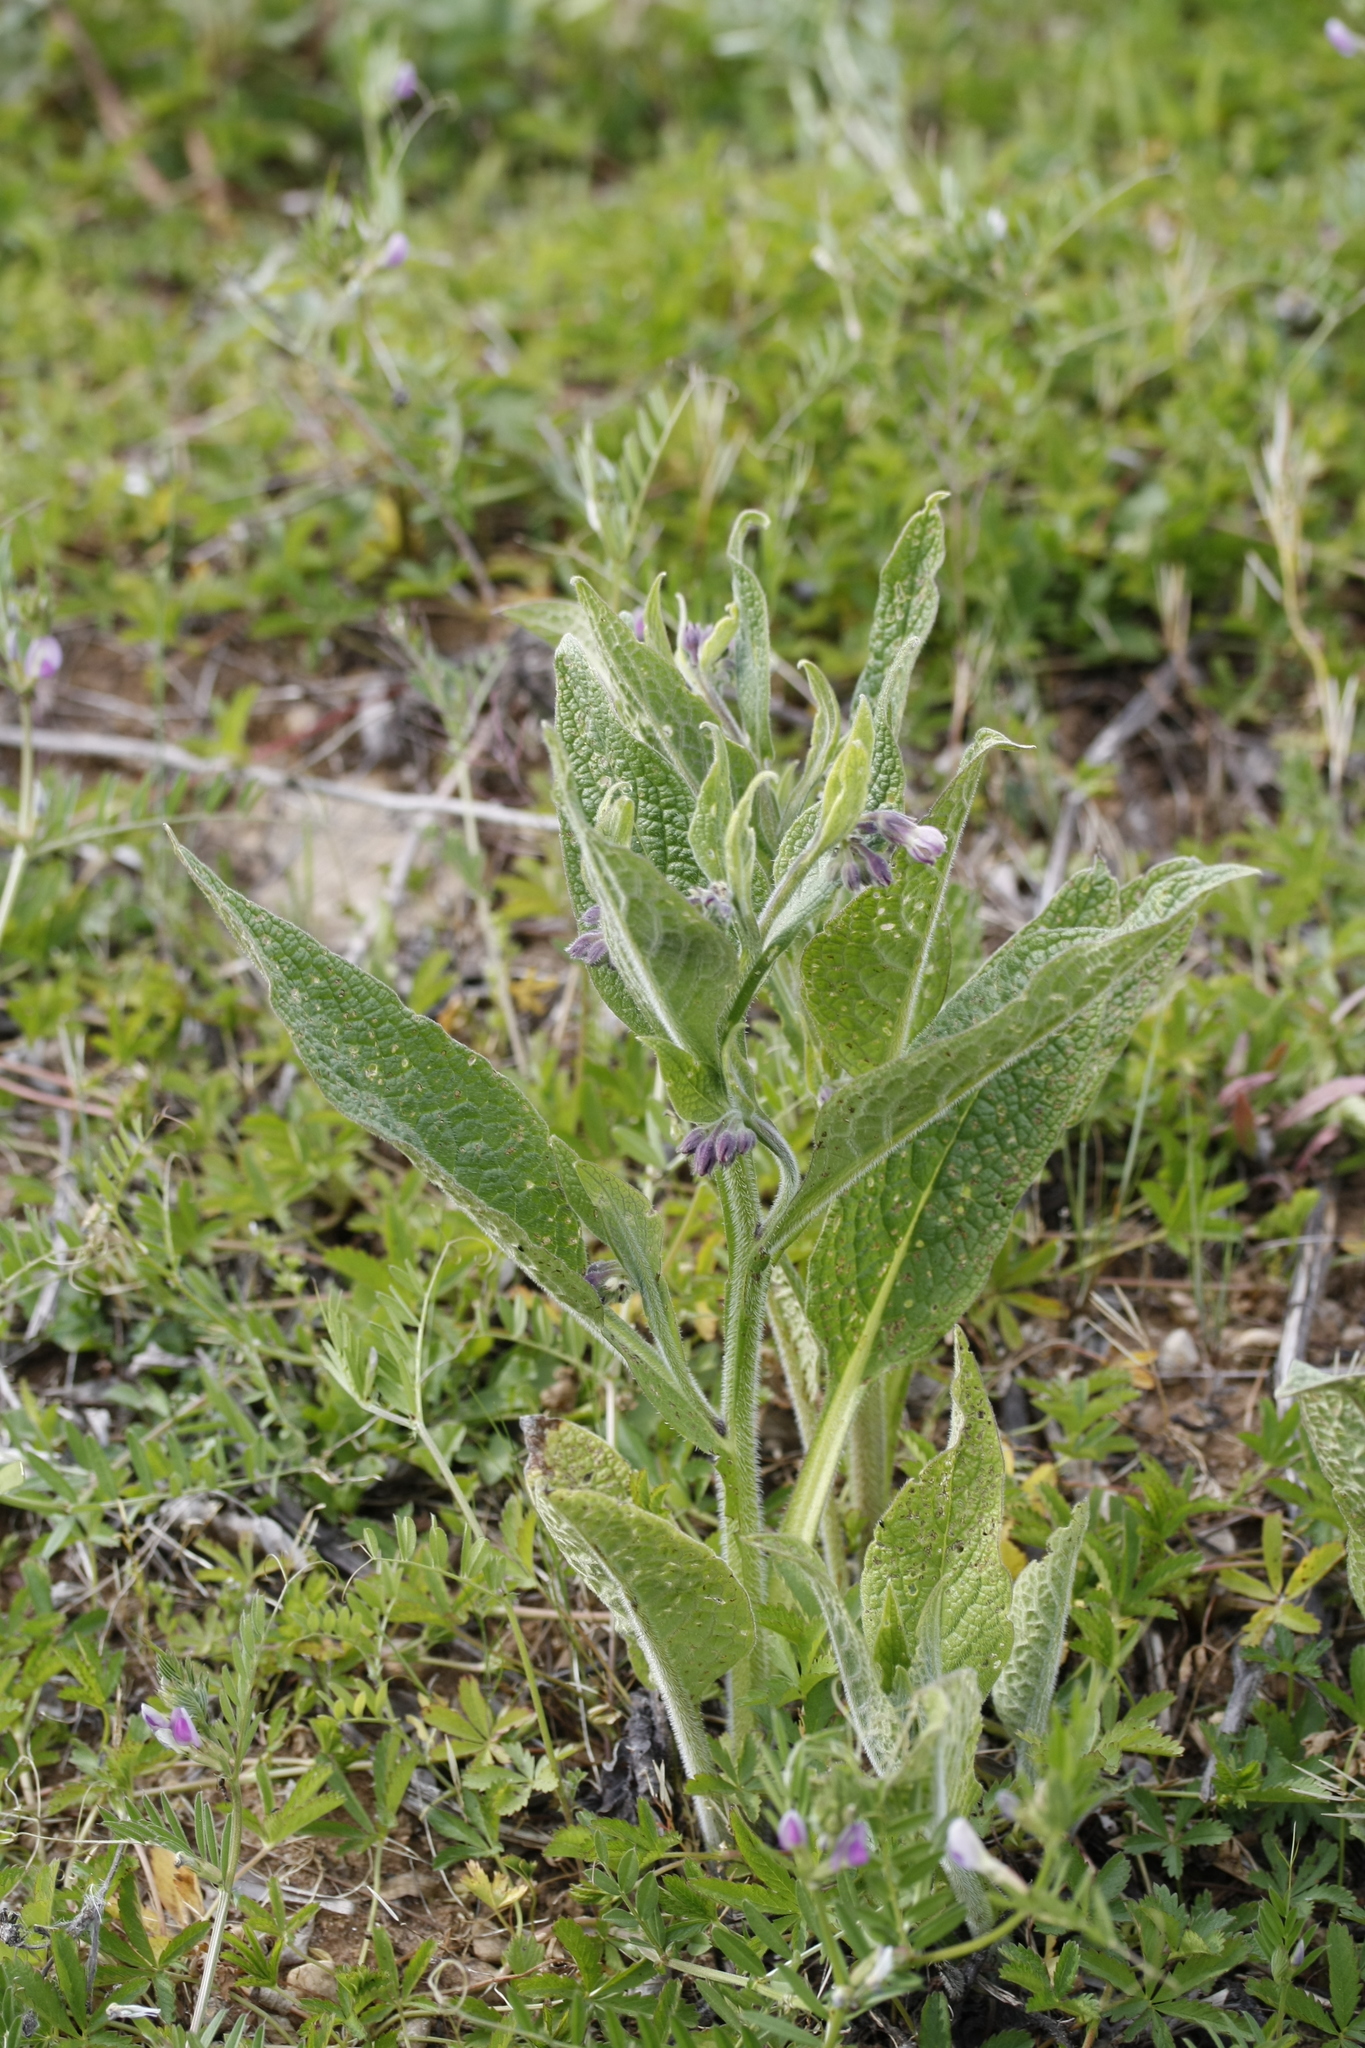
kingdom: Plantae
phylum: Tracheophyta
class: Magnoliopsida
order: Boraginales
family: Boraginaceae
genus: Symphytum
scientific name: Symphytum officinale
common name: Common comfrey
